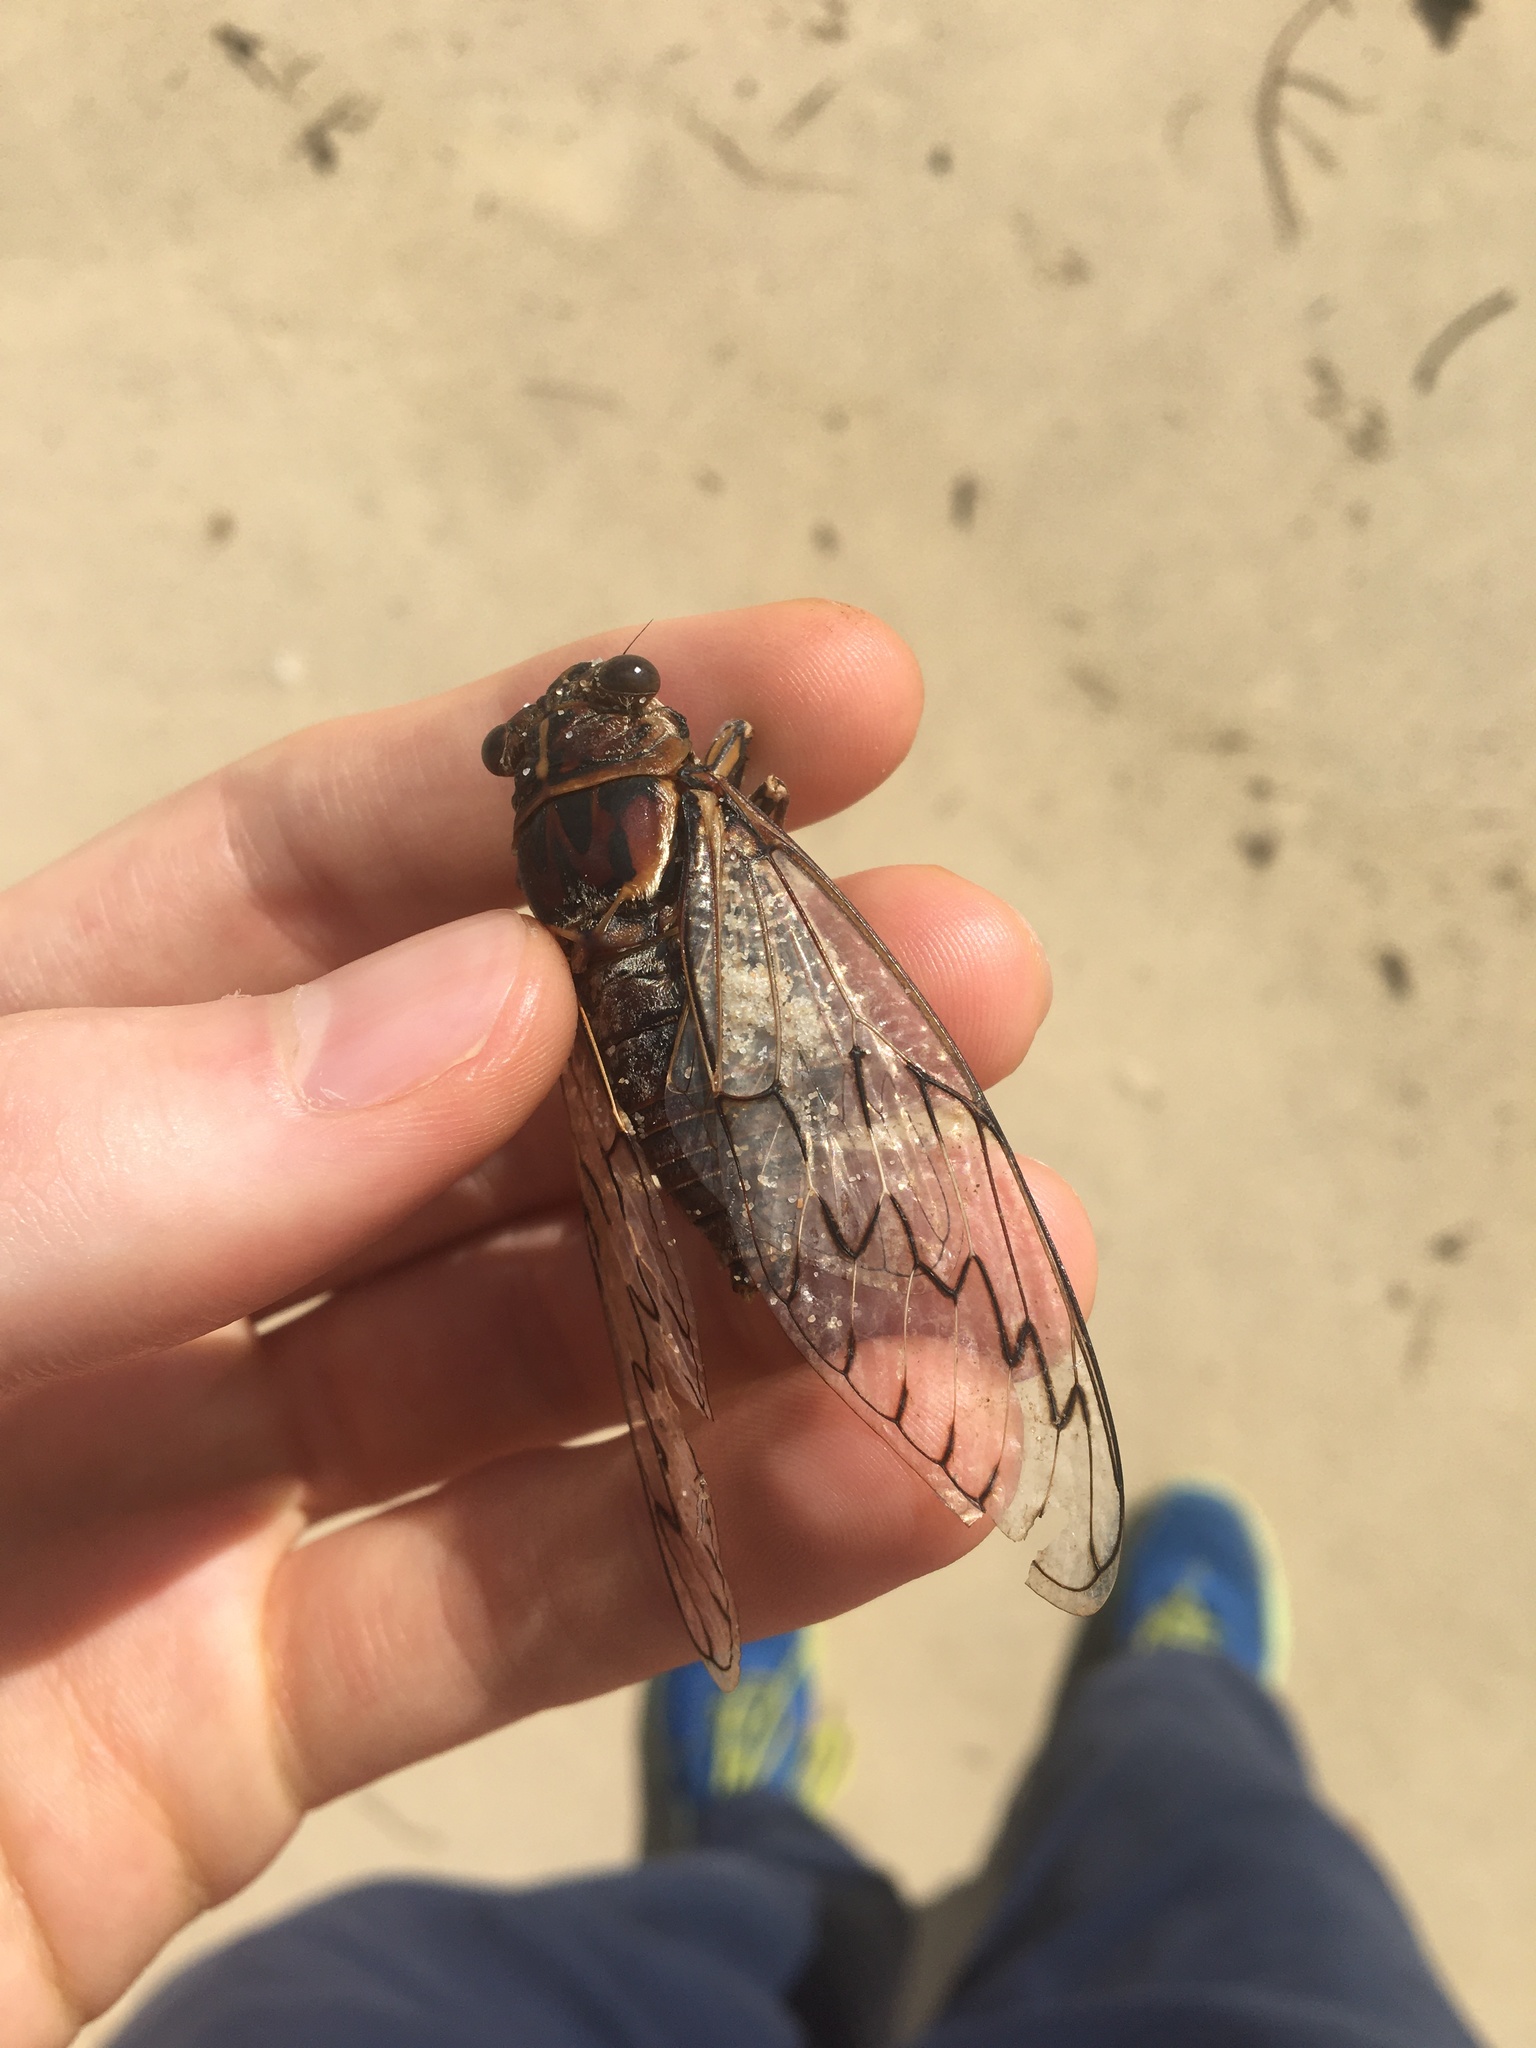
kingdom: Animalia
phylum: Arthropoda
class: Insecta
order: Hemiptera
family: Cicadidae
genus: Henicopsaltria
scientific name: Henicopsaltria eydouxii
